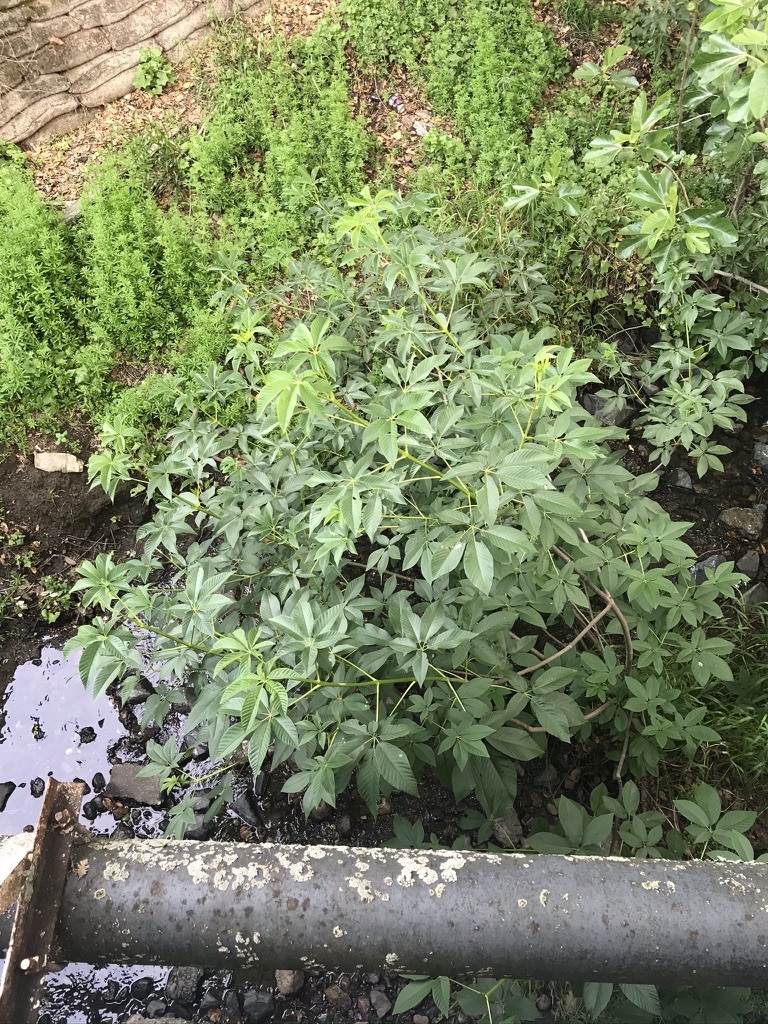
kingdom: Plantae
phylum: Tracheophyta
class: Magnoliopsida
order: Sapindales
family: Sapindaceae
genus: Aesculus
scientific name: Aesculus californica
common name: California buckeye
